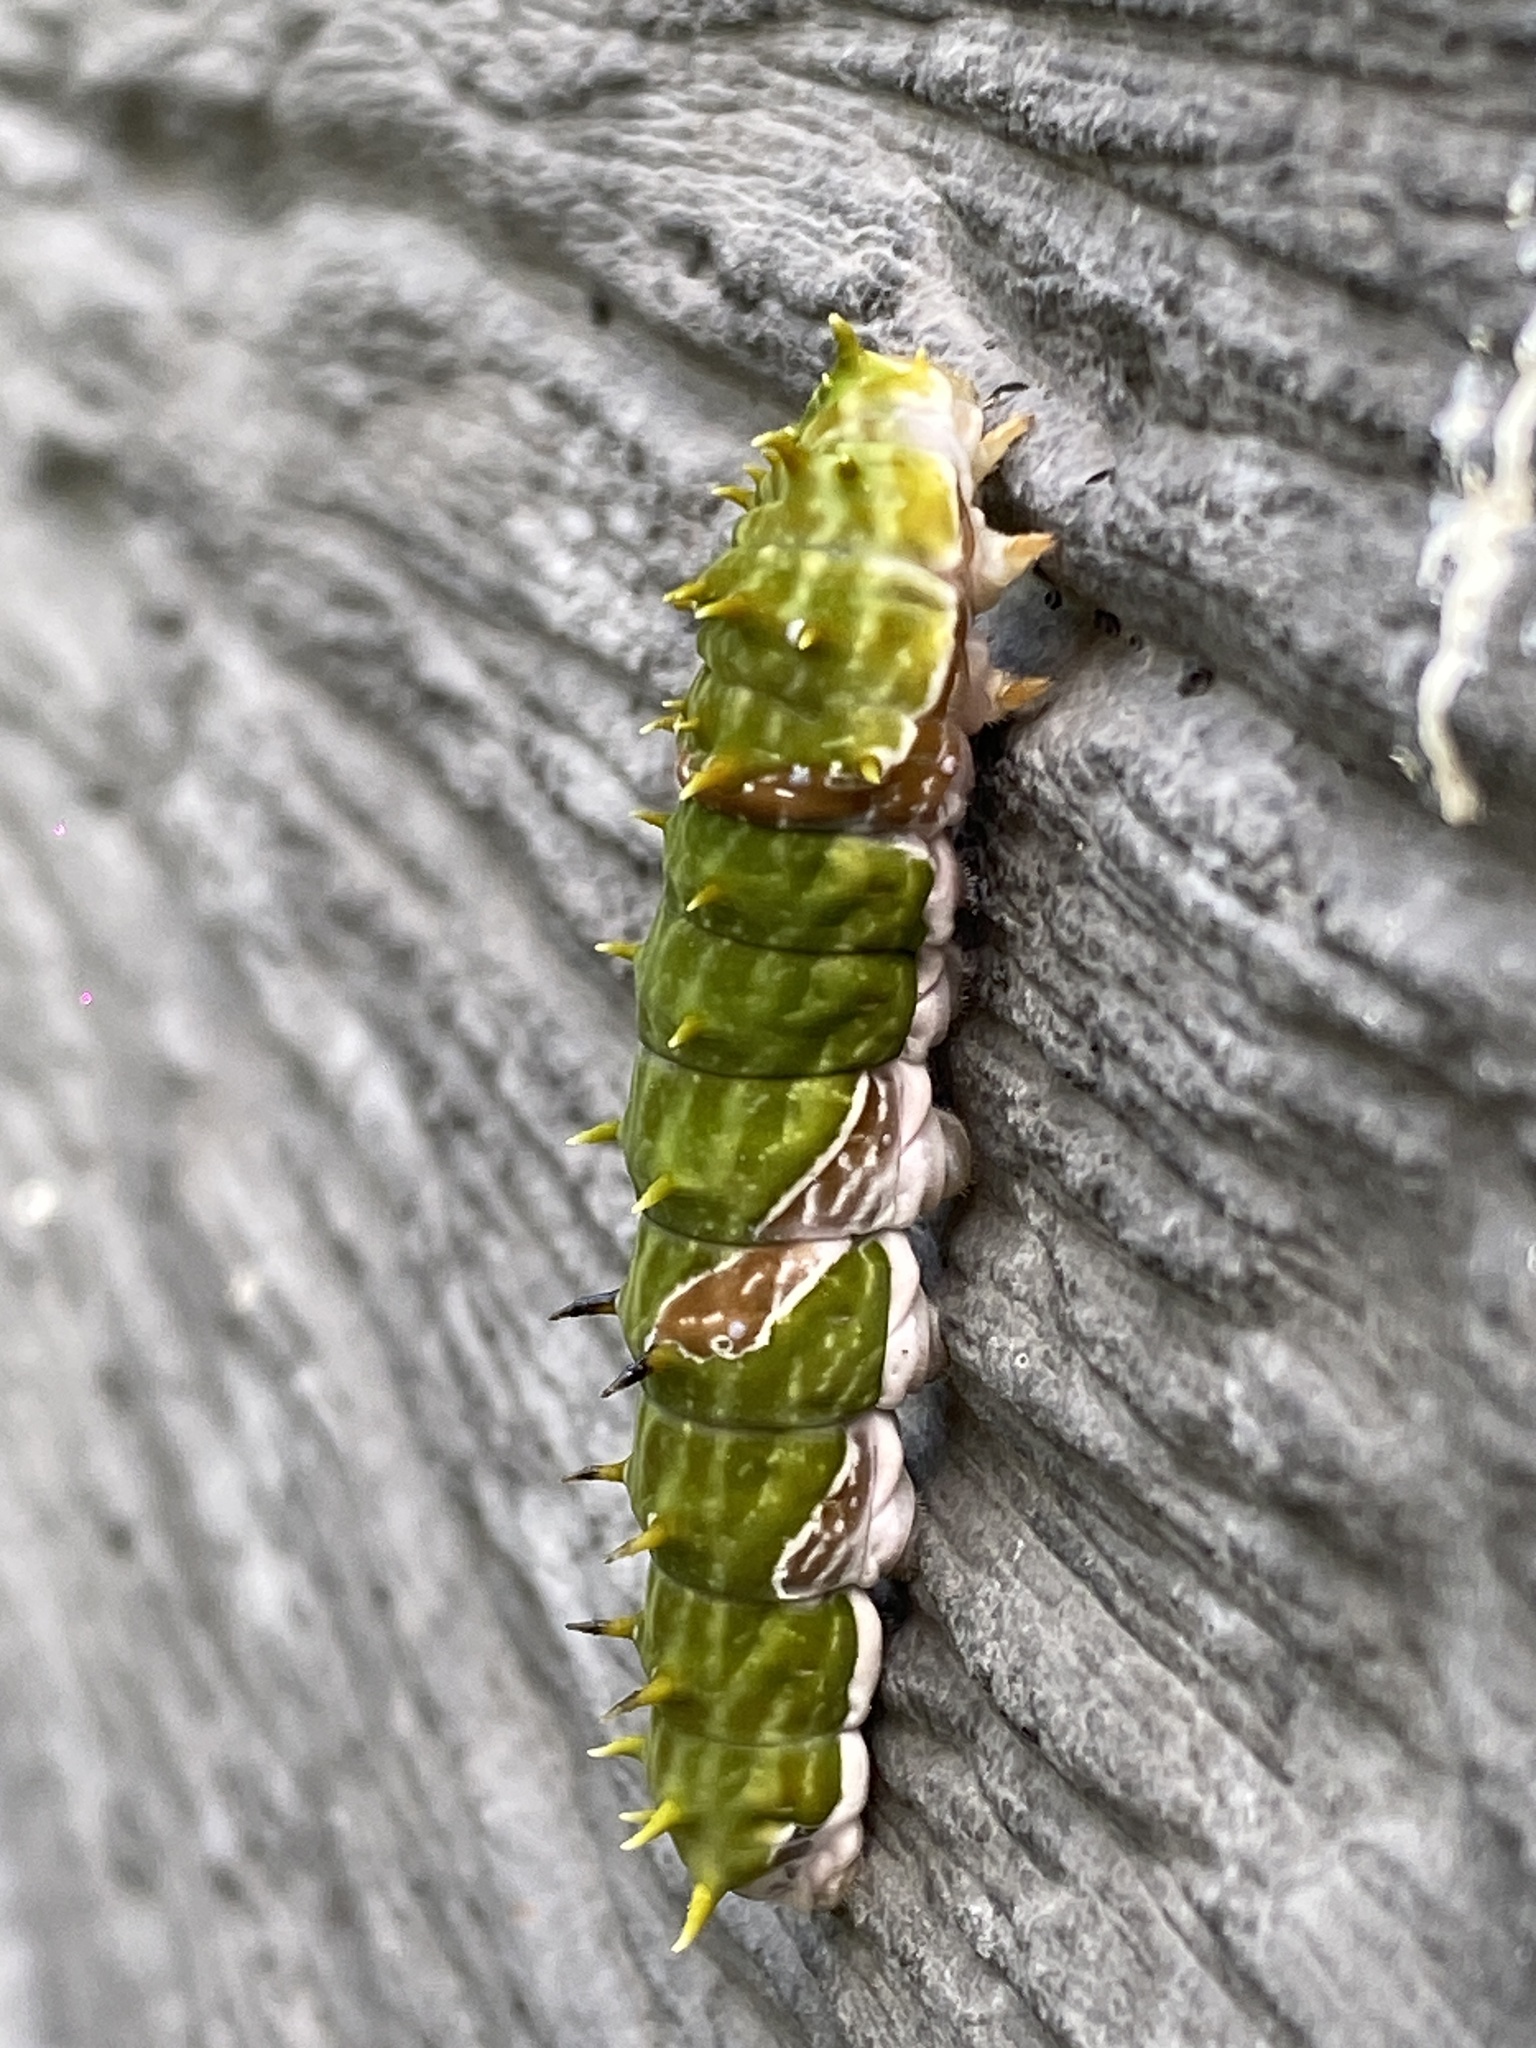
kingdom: Animalia
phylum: Arthropoda
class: Insecta
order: Lepidoptera
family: Papilionidae
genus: Papilio
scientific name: Papilio aegeus
